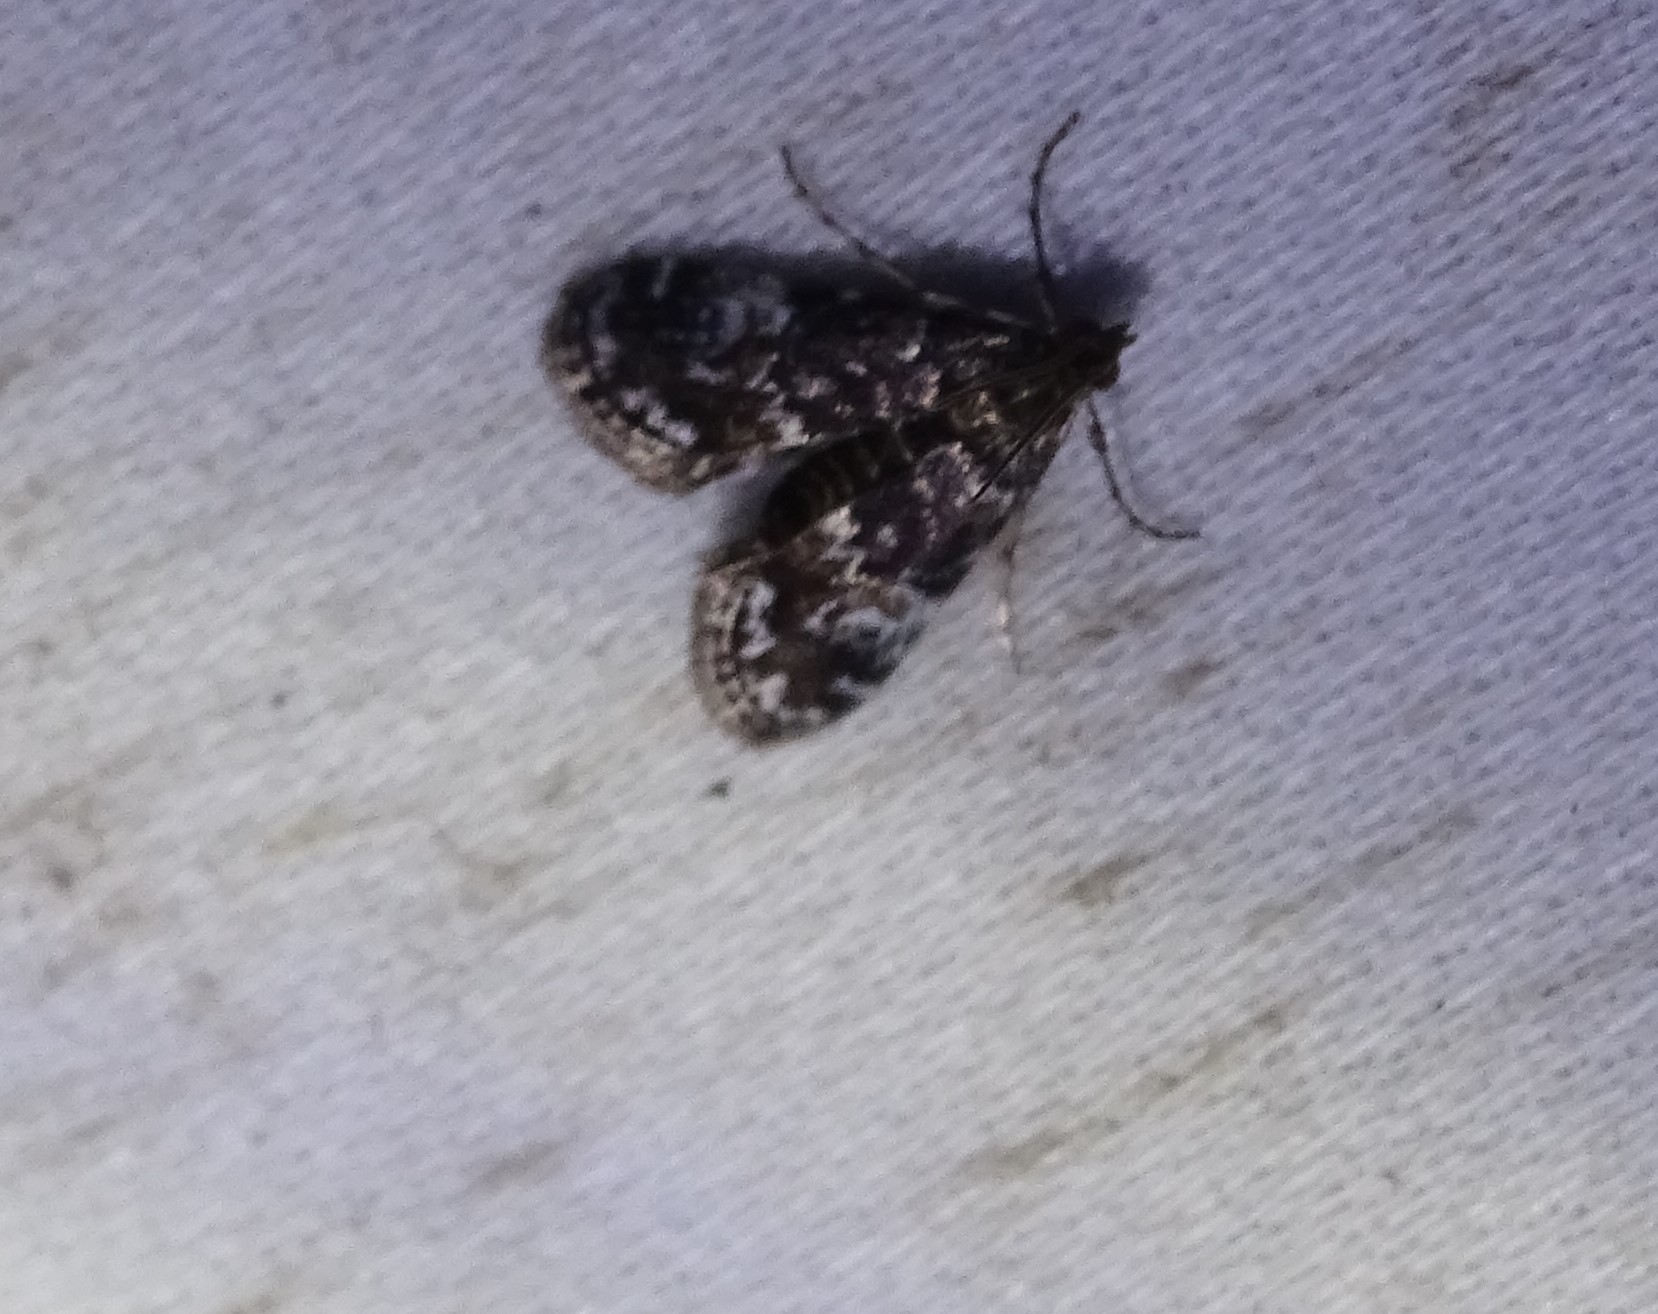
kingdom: Animalia
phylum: Arthropoda
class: Insecta
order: Lepidoptera
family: Crambidae
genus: Elophila
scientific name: Elophila obliteralis
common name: Waterlily leafcutter moth
